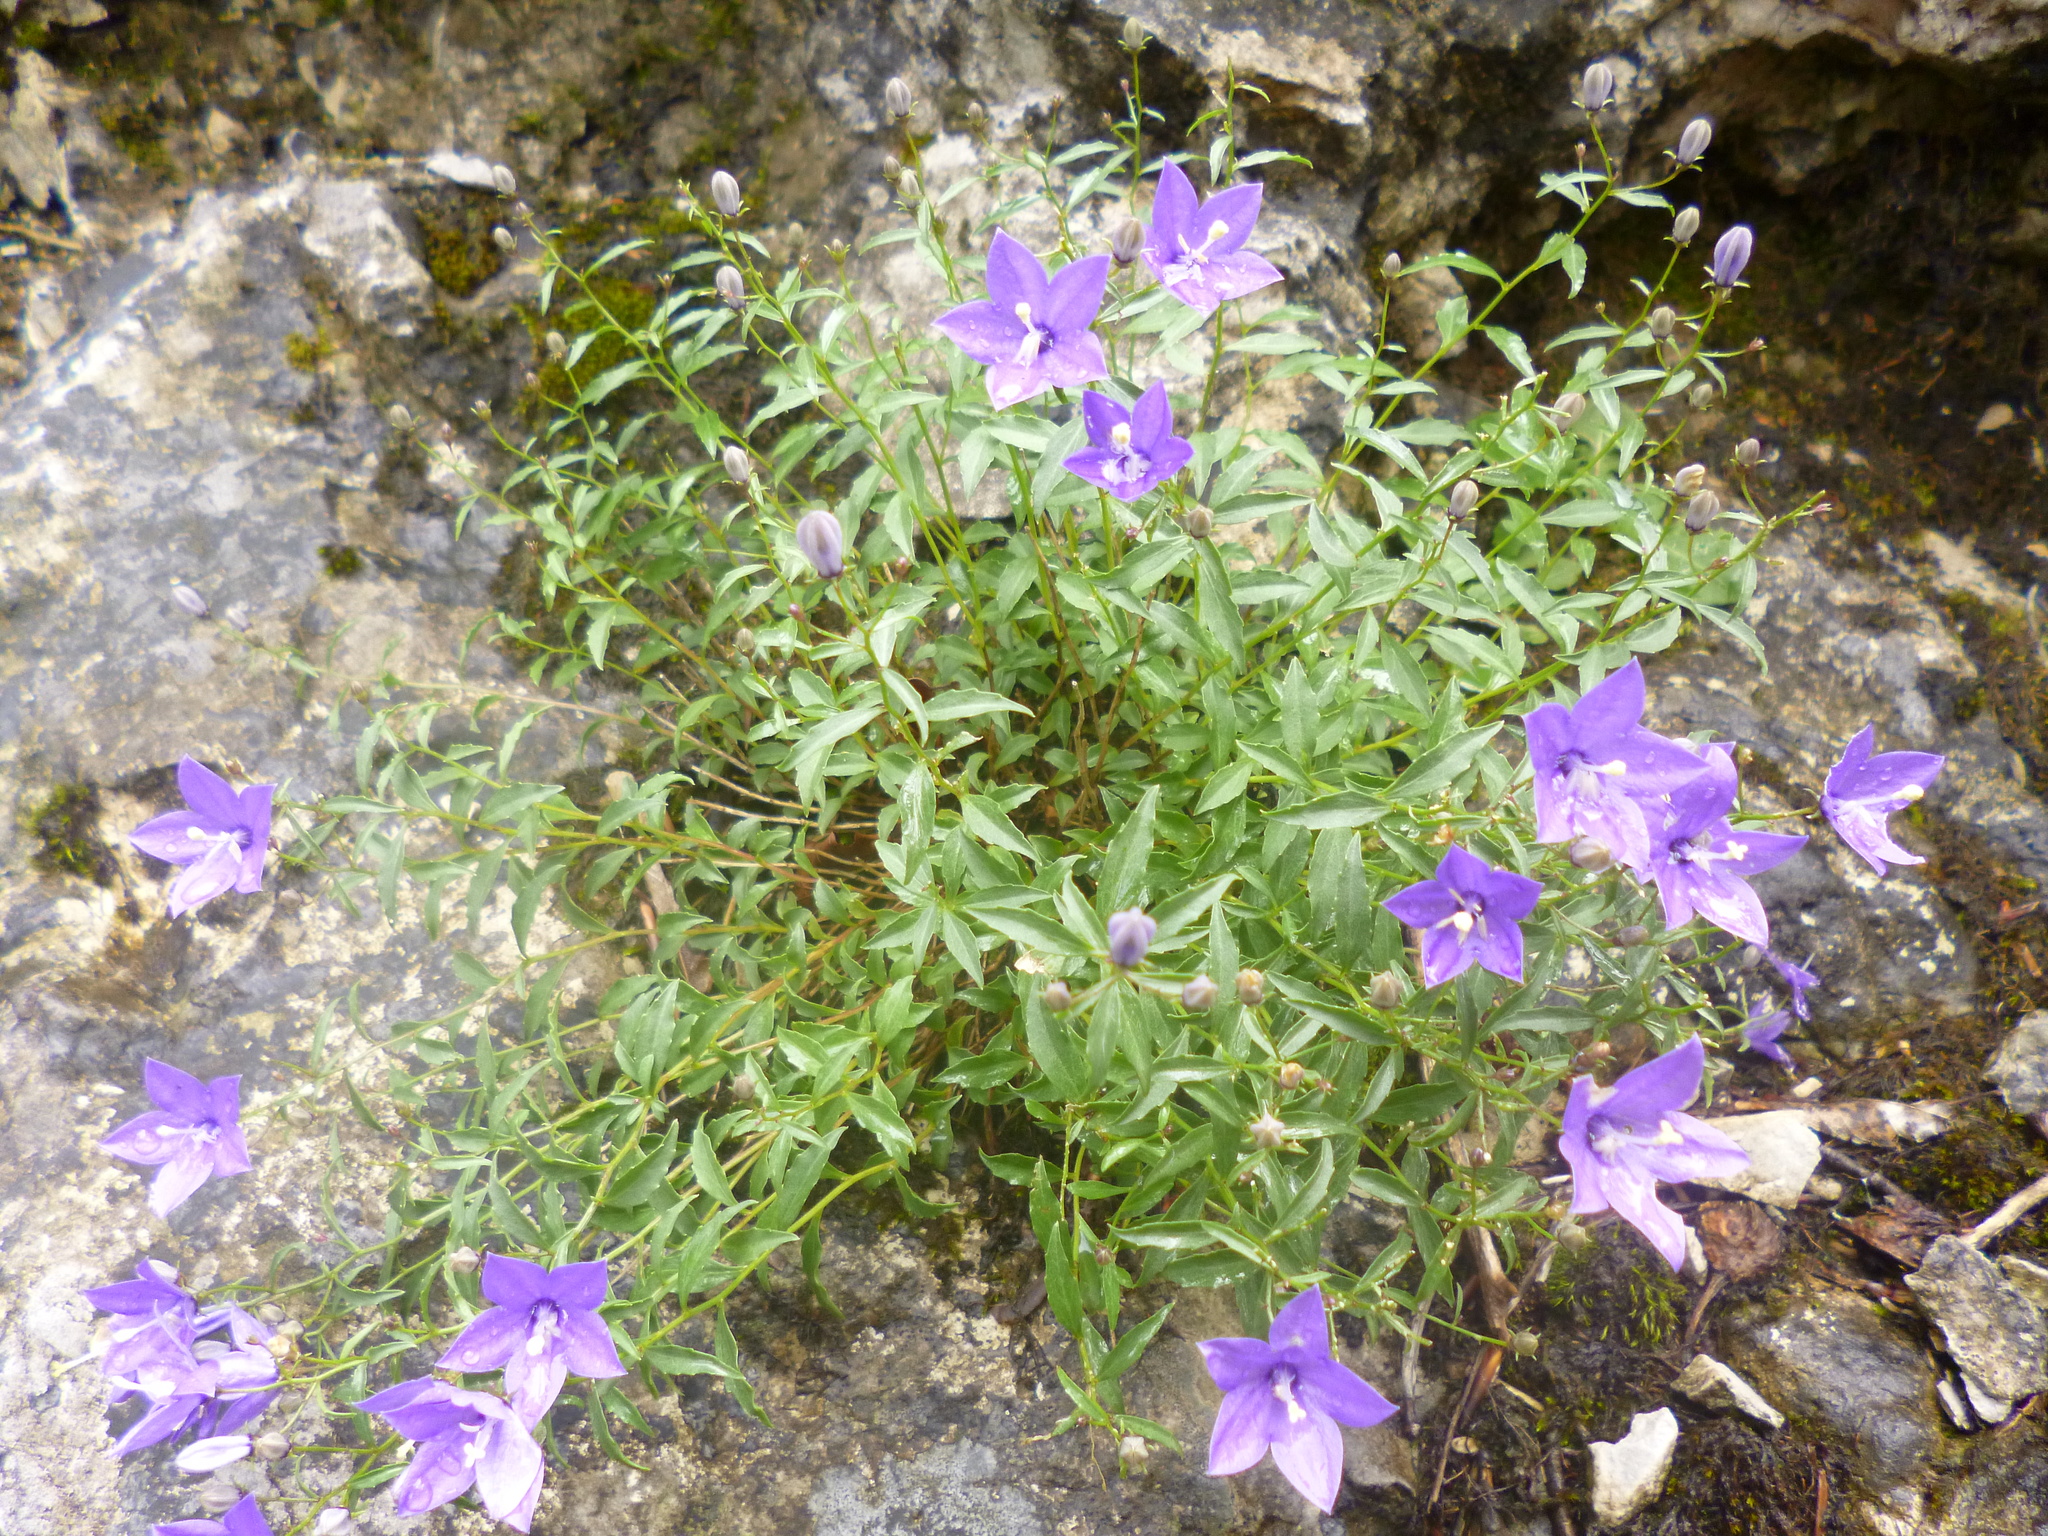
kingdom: Plantae
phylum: Tracheophyta
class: Magnoliopsida
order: Asterales
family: Campanulaceae
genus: Campanula
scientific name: Campanula waldsteiniana
